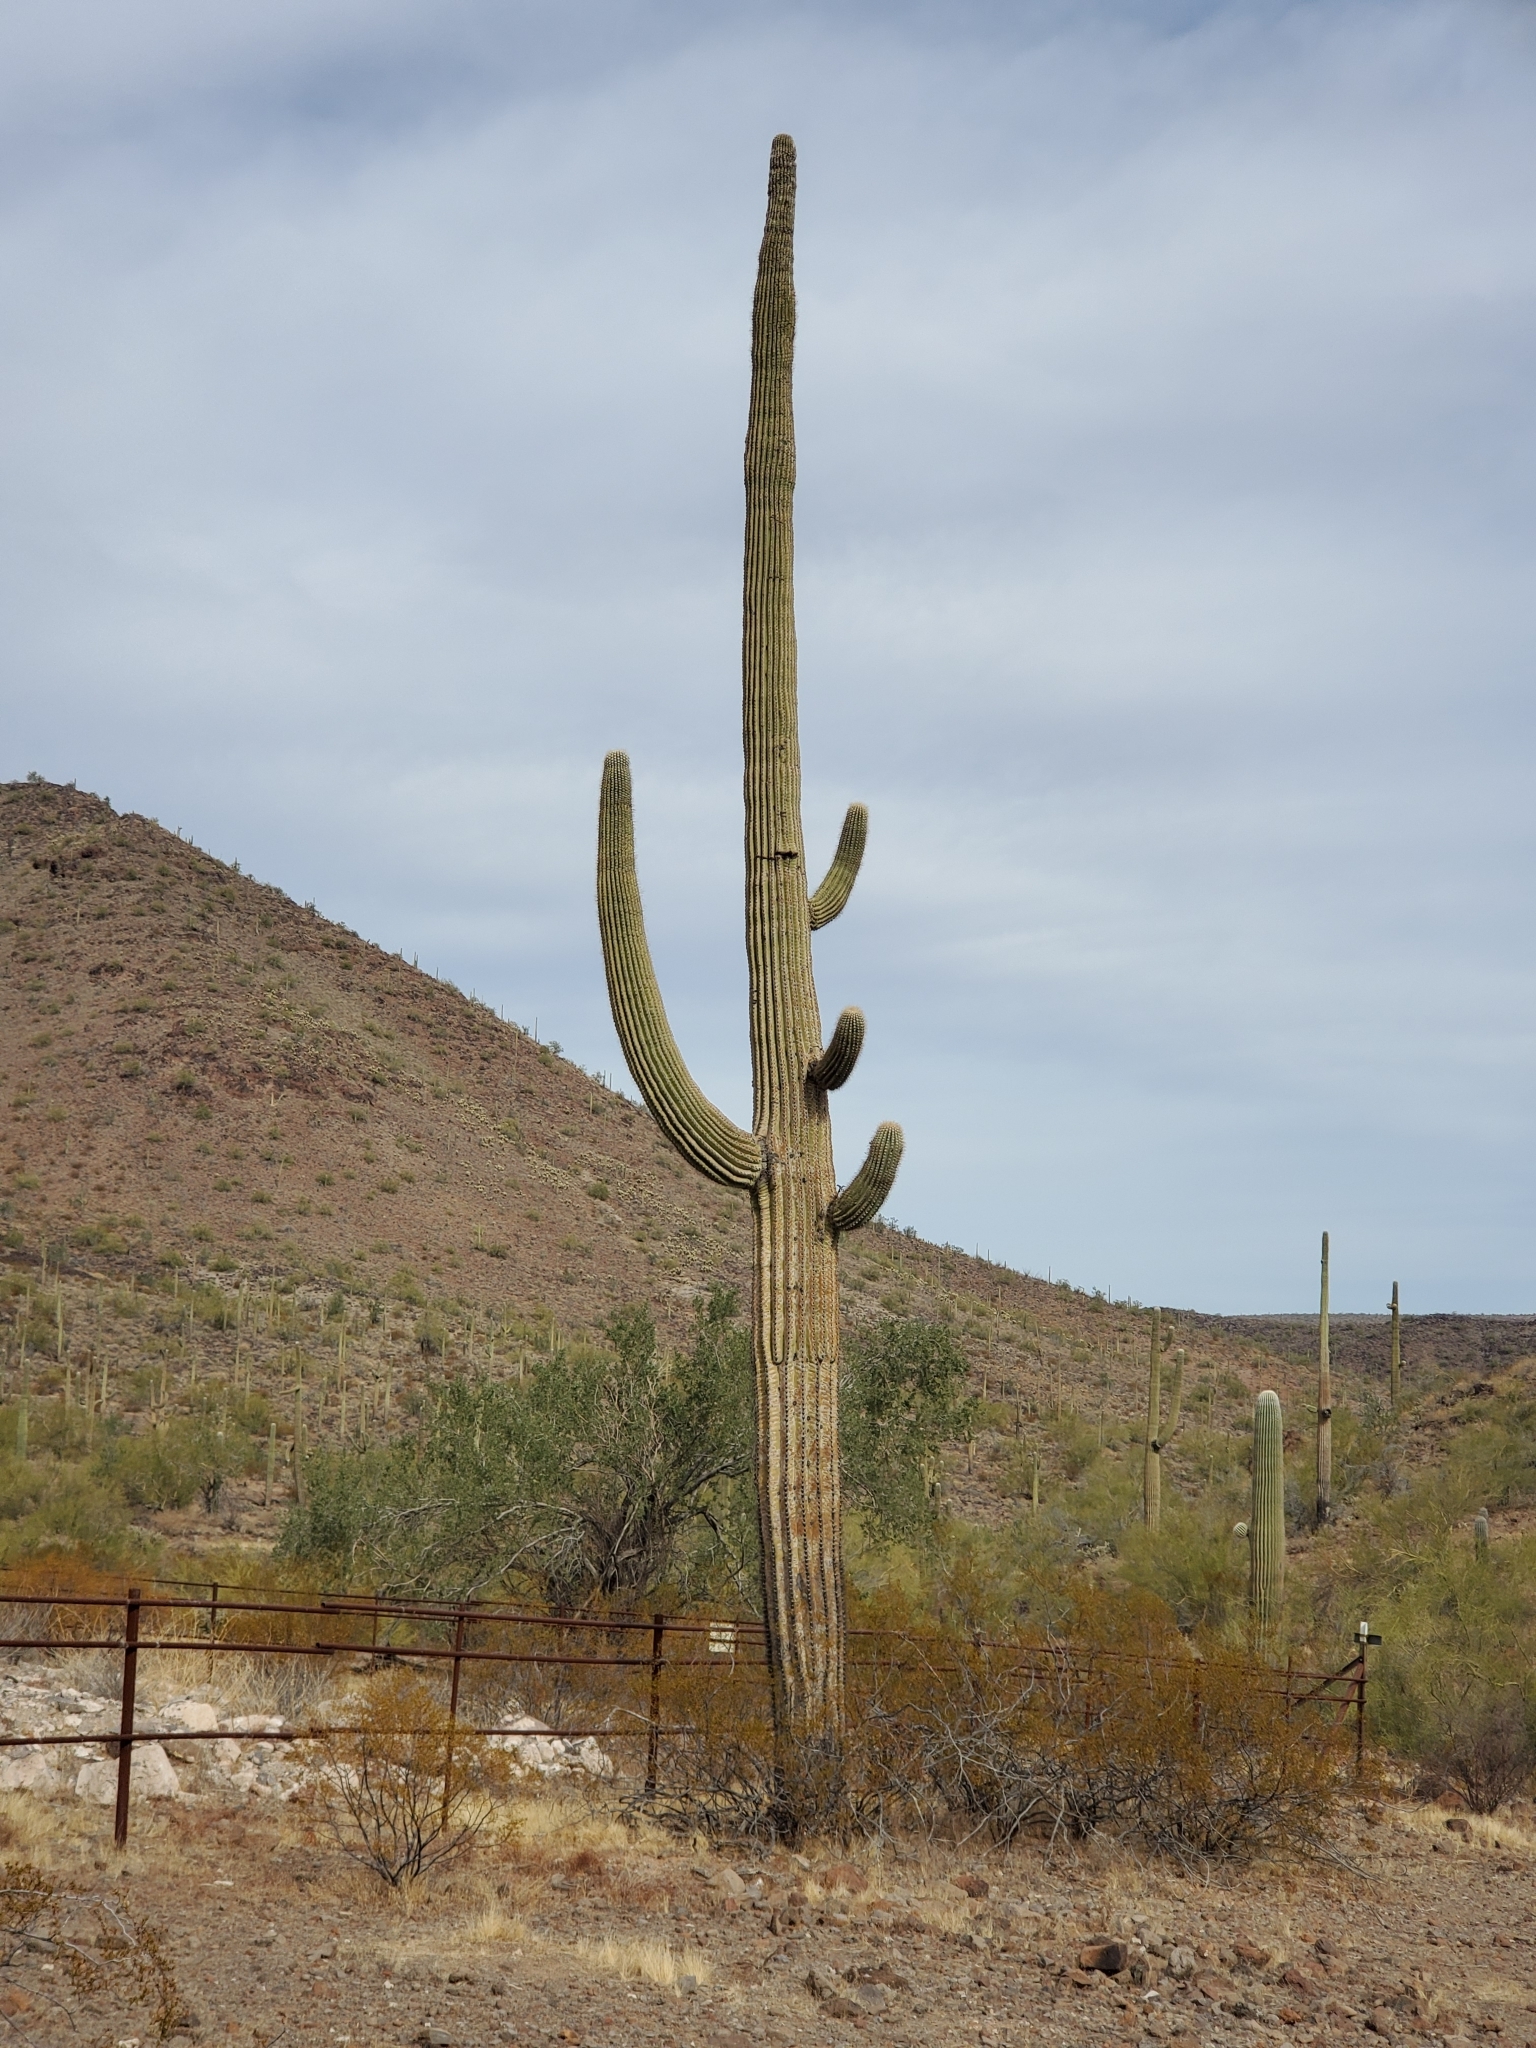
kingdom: Plantae
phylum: Tracheophyta
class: Magnoliopsida
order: Caryophyllales
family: Cactaceae
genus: Carnegiea
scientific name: Carnegiea gigantea
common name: Saguaro
